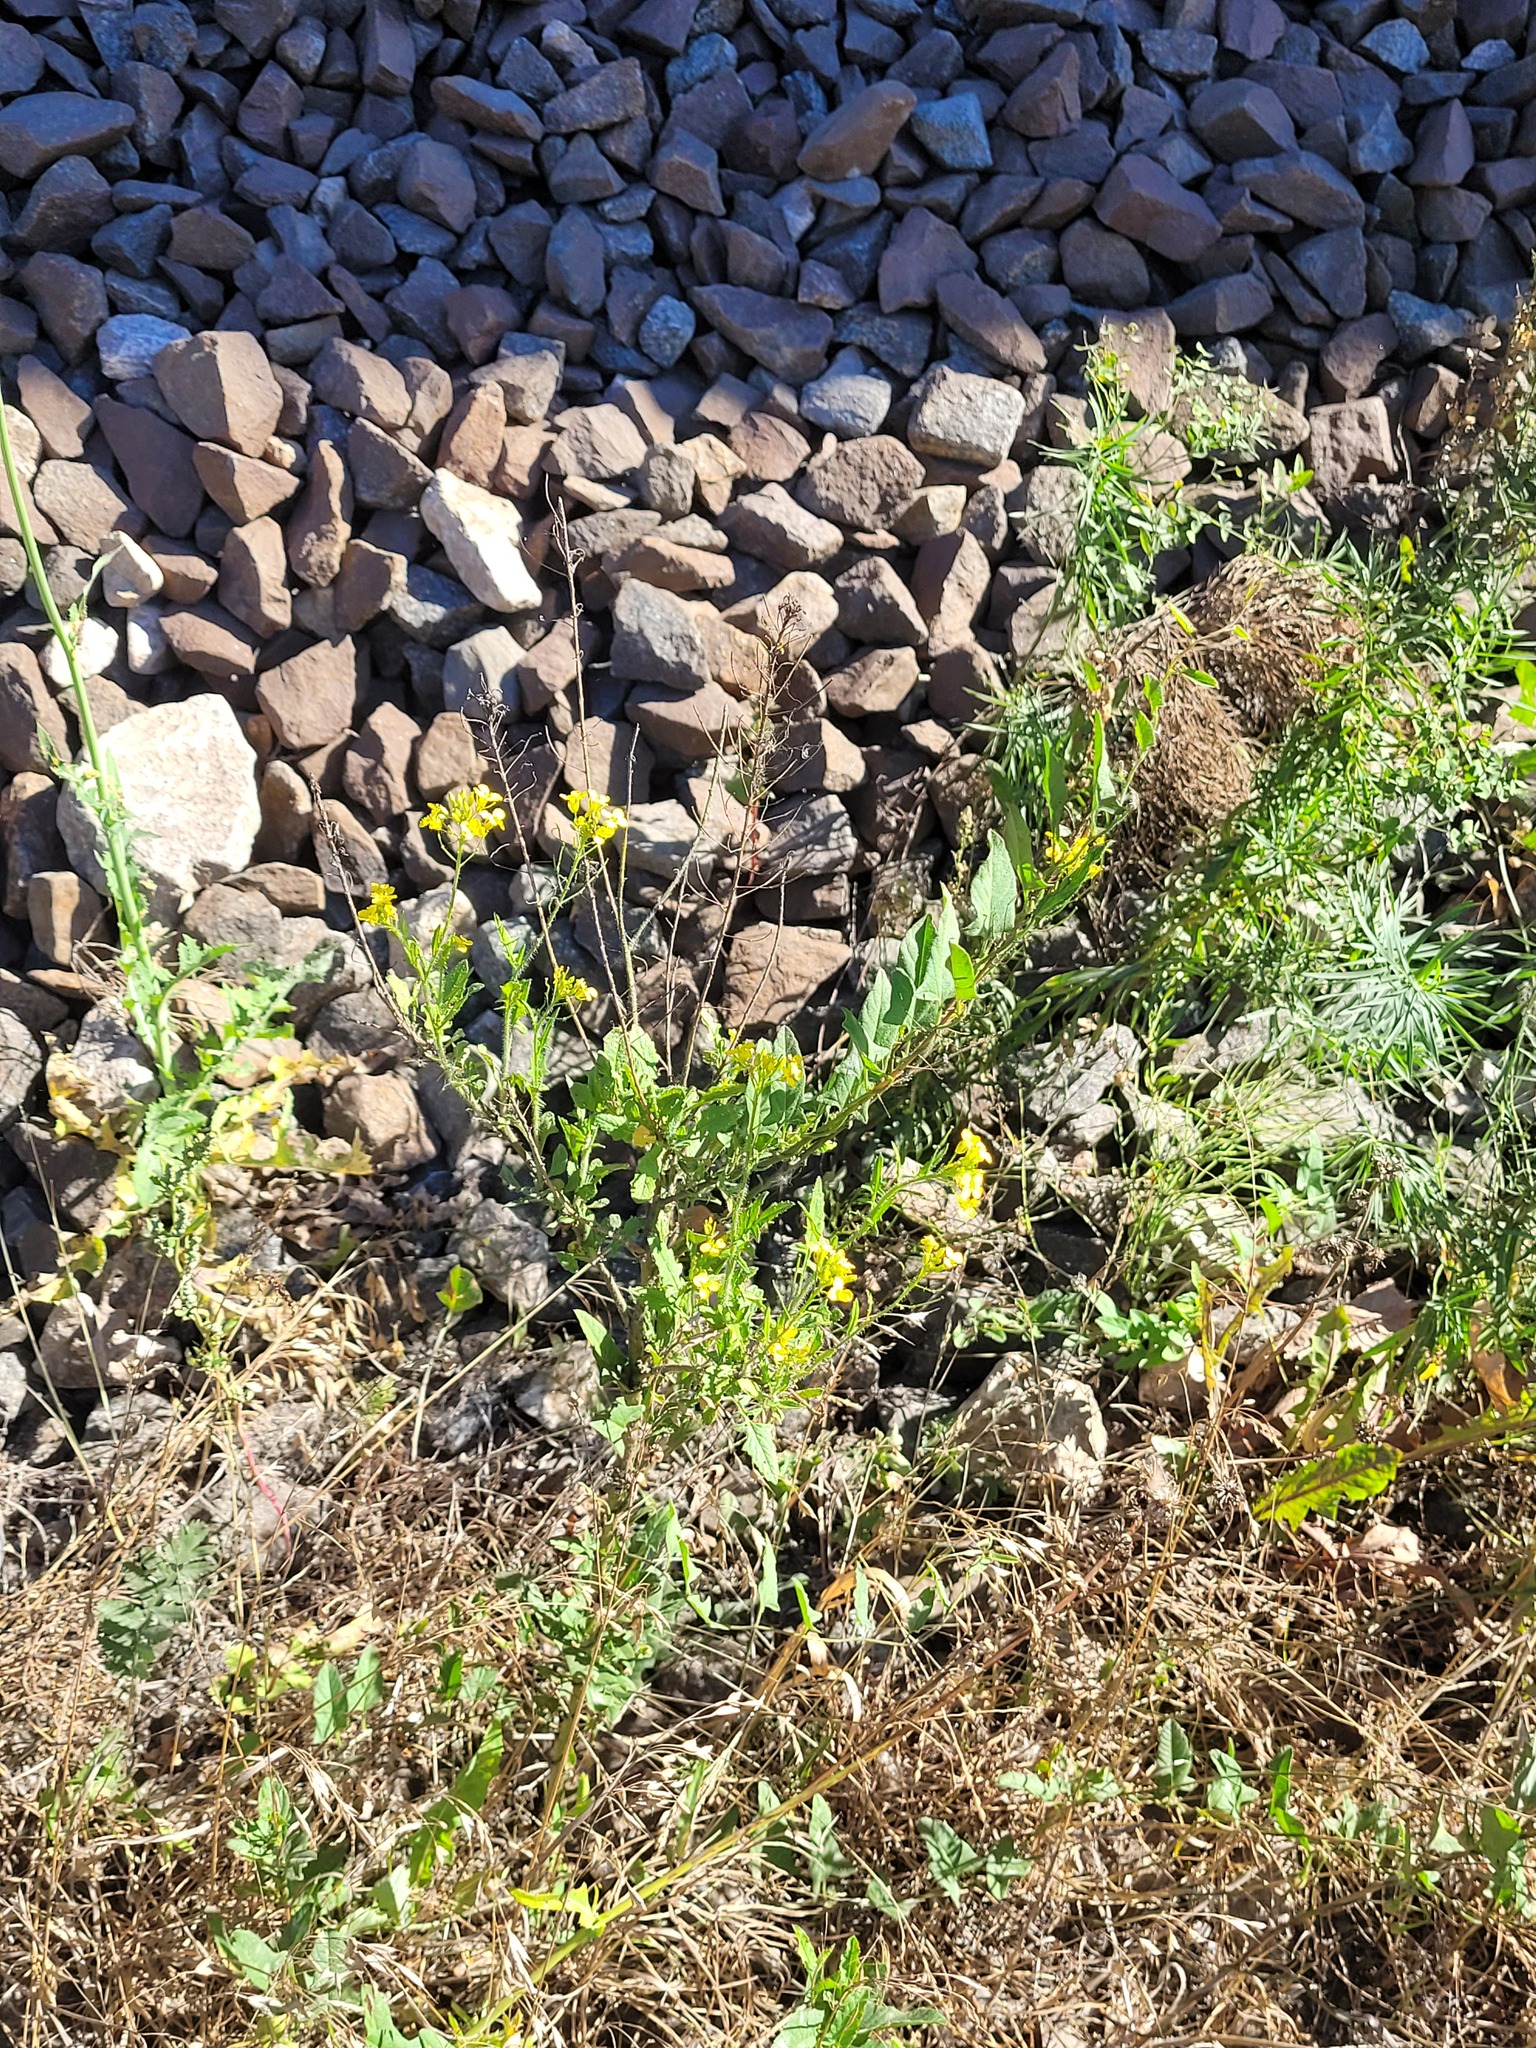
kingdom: Plantae
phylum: Tracheophyta
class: Magnoliopsida
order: Brassicales
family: Brassicaceae
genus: Sisymbrium
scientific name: Sisymbrium loeselii
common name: False london-rocket
